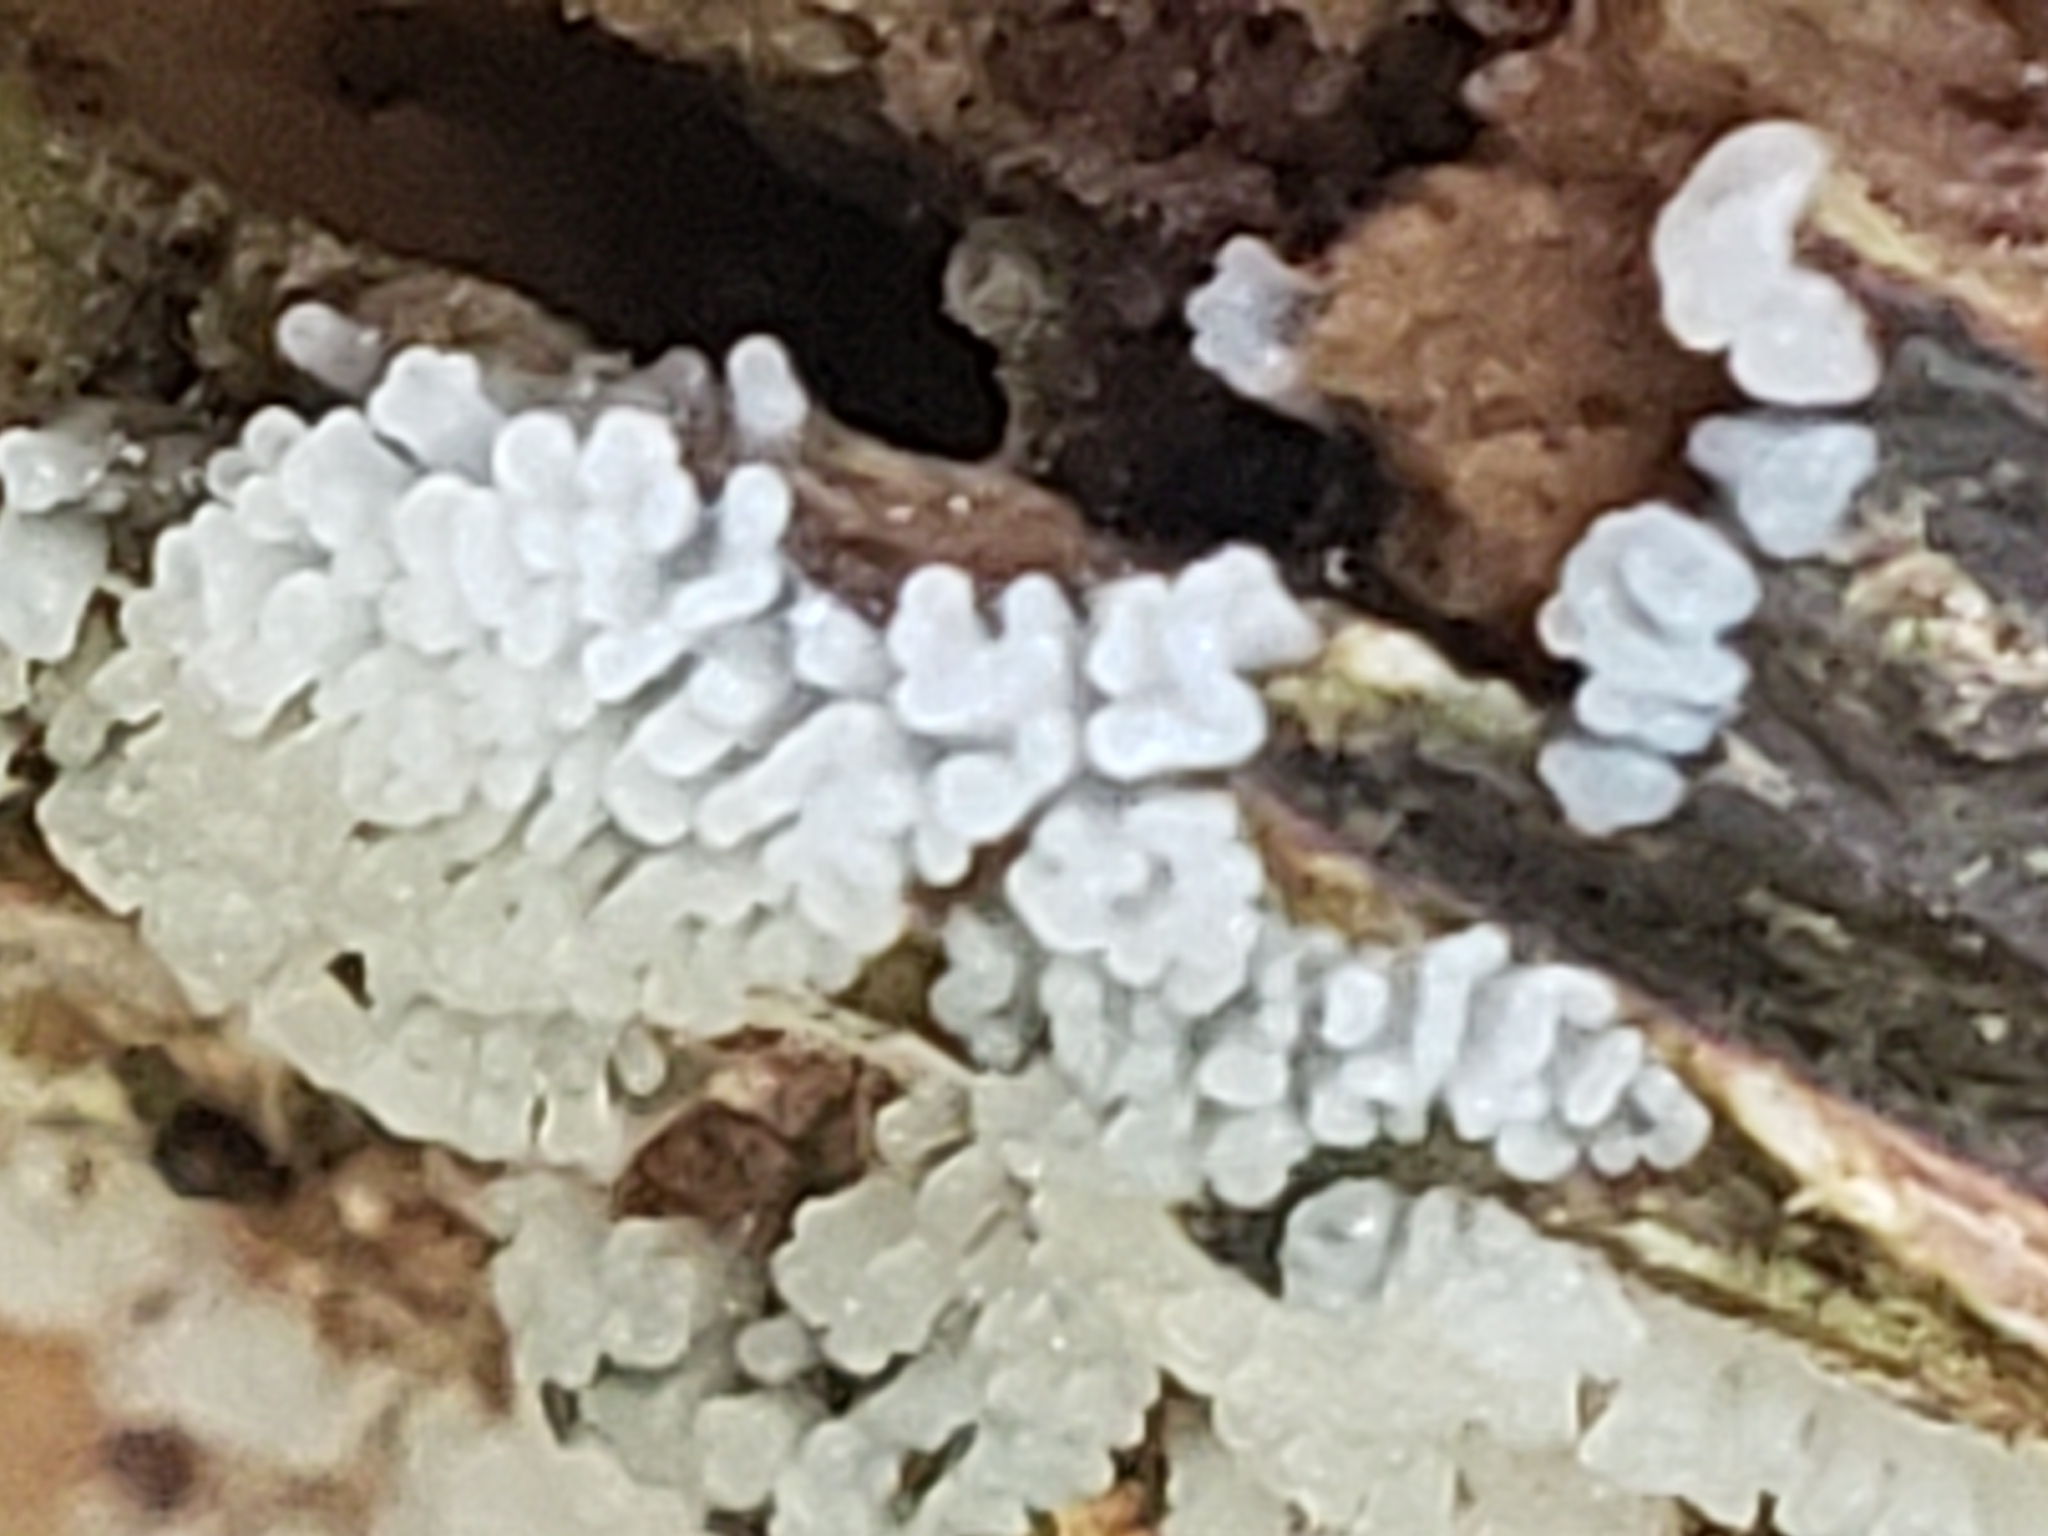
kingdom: Protozoa
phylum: Mycetozoa
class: Protosteliomycetes
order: Ceratiomyxales
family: Ceratiomyxaceae
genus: Ceratiomyxa
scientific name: Ceratiomyxa fruticulosa
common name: Honeycomb coral slime mold
